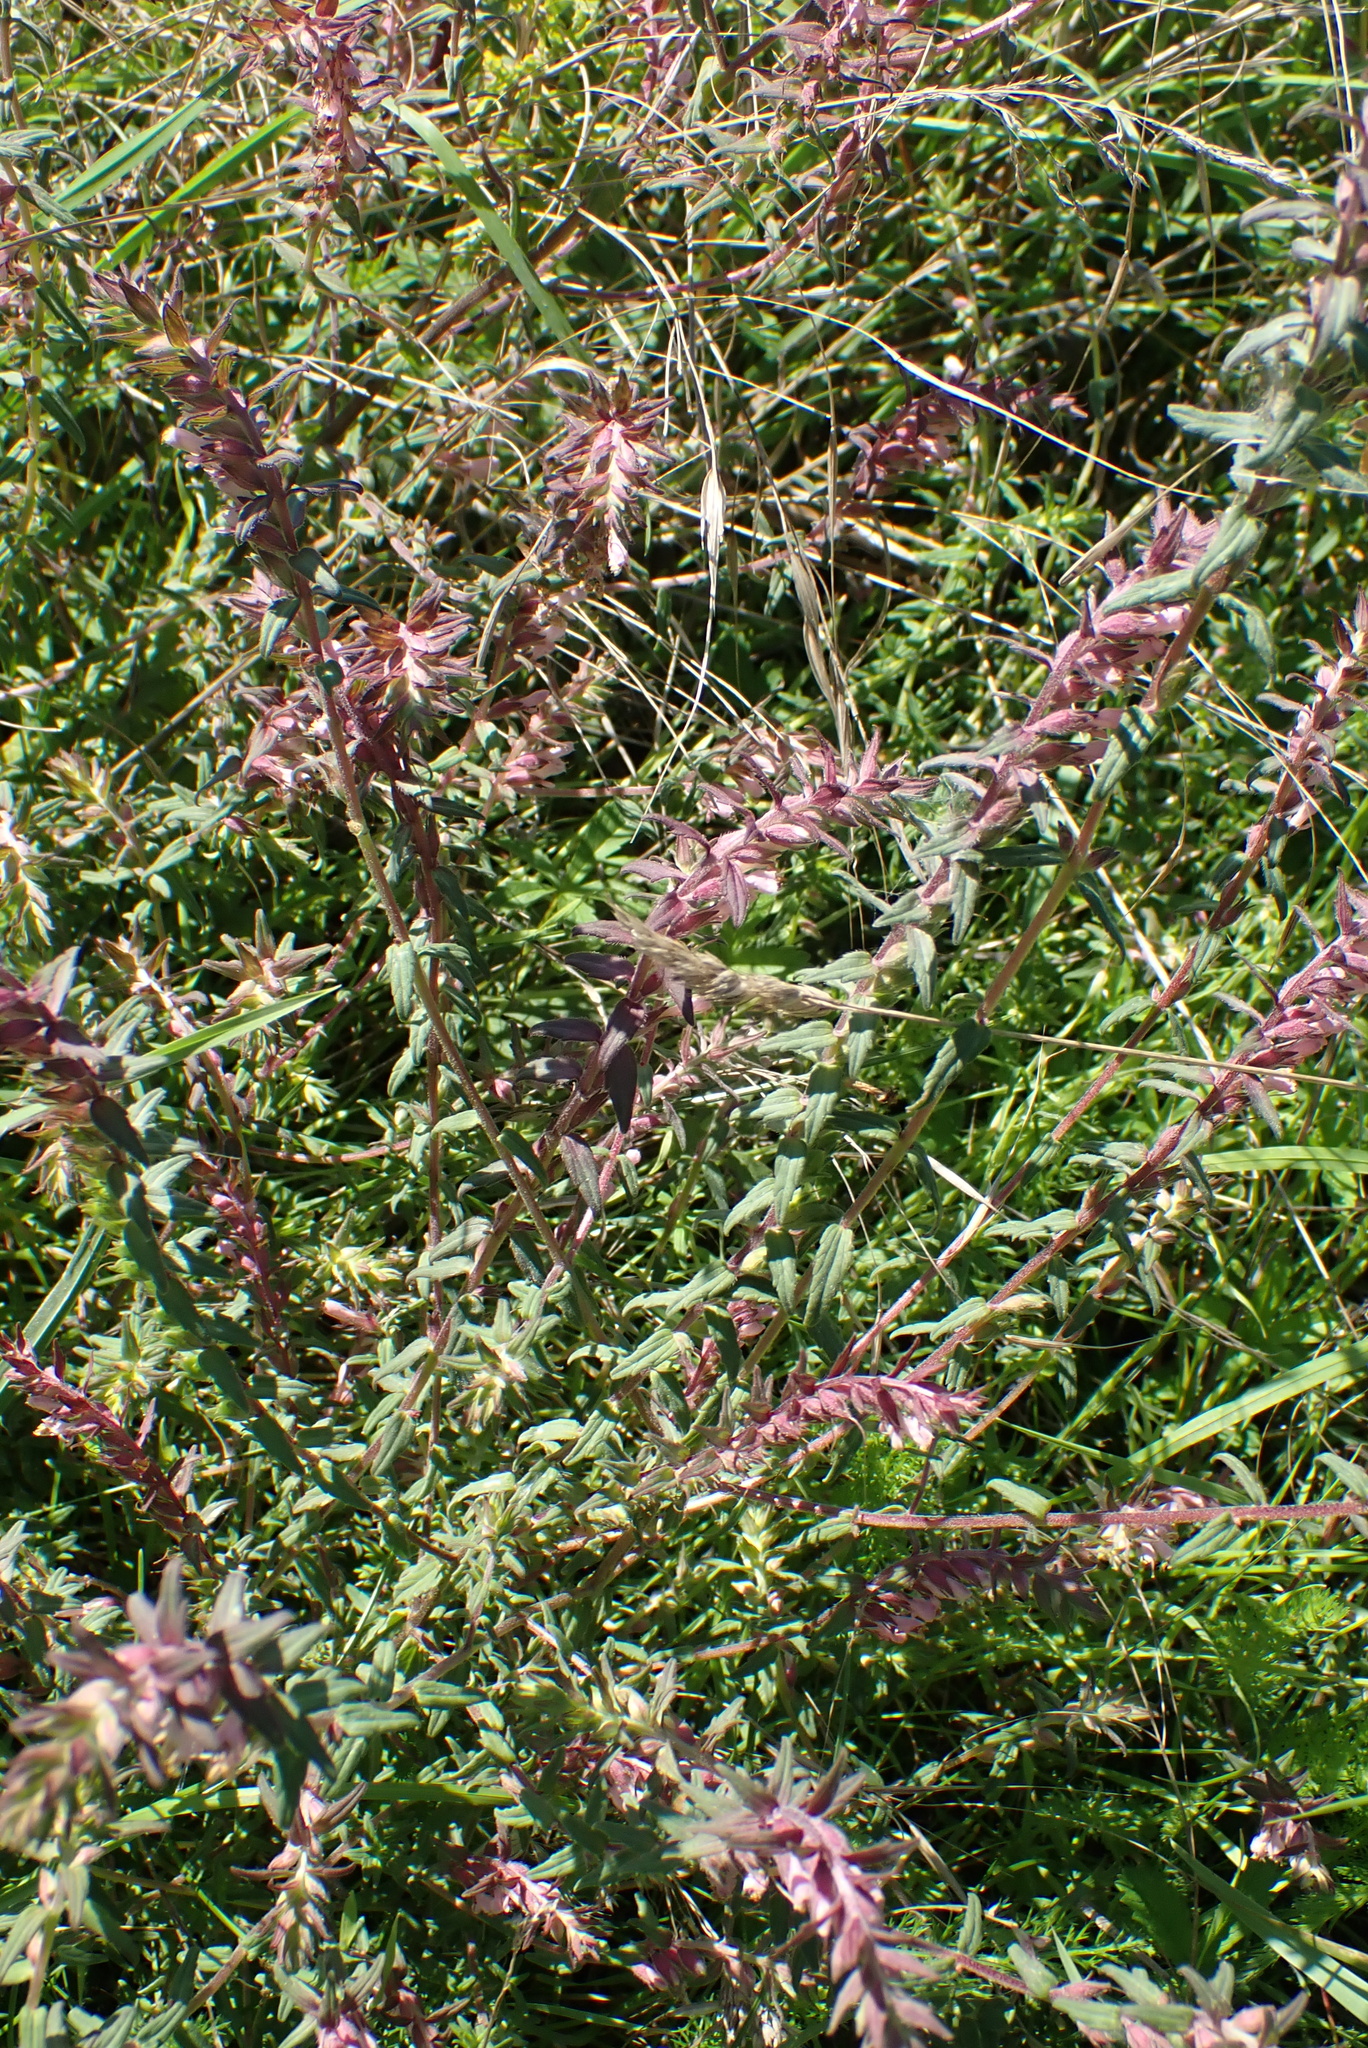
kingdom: Plantae
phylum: Tracheophyta
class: Magnoliopsida
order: Lamiales
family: Orobanchaceae
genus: Odontites
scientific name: Odontites vulgaris
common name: Broomrape
